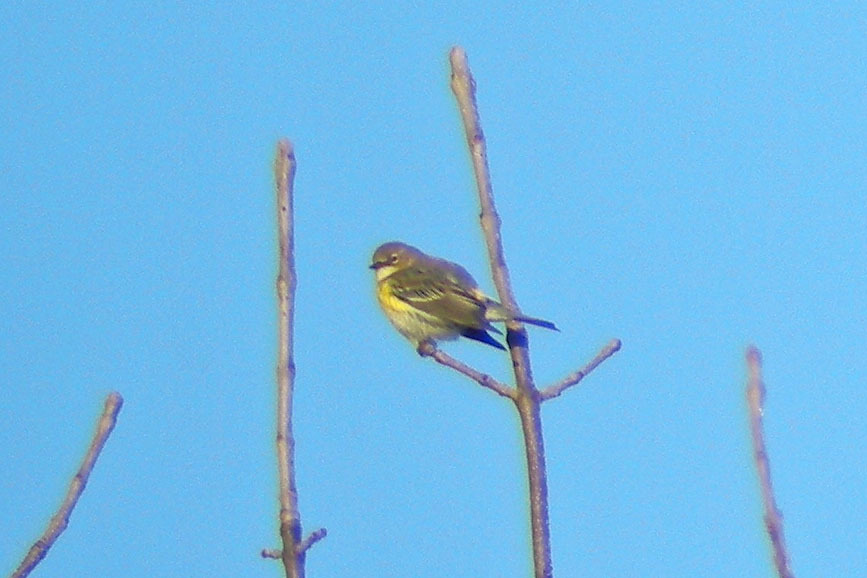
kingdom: Animalia
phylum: Chordata
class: Aves
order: Passeriformes
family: Parulidae
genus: Setophaga
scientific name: Setophaga coronata
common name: Myrtle warbler
